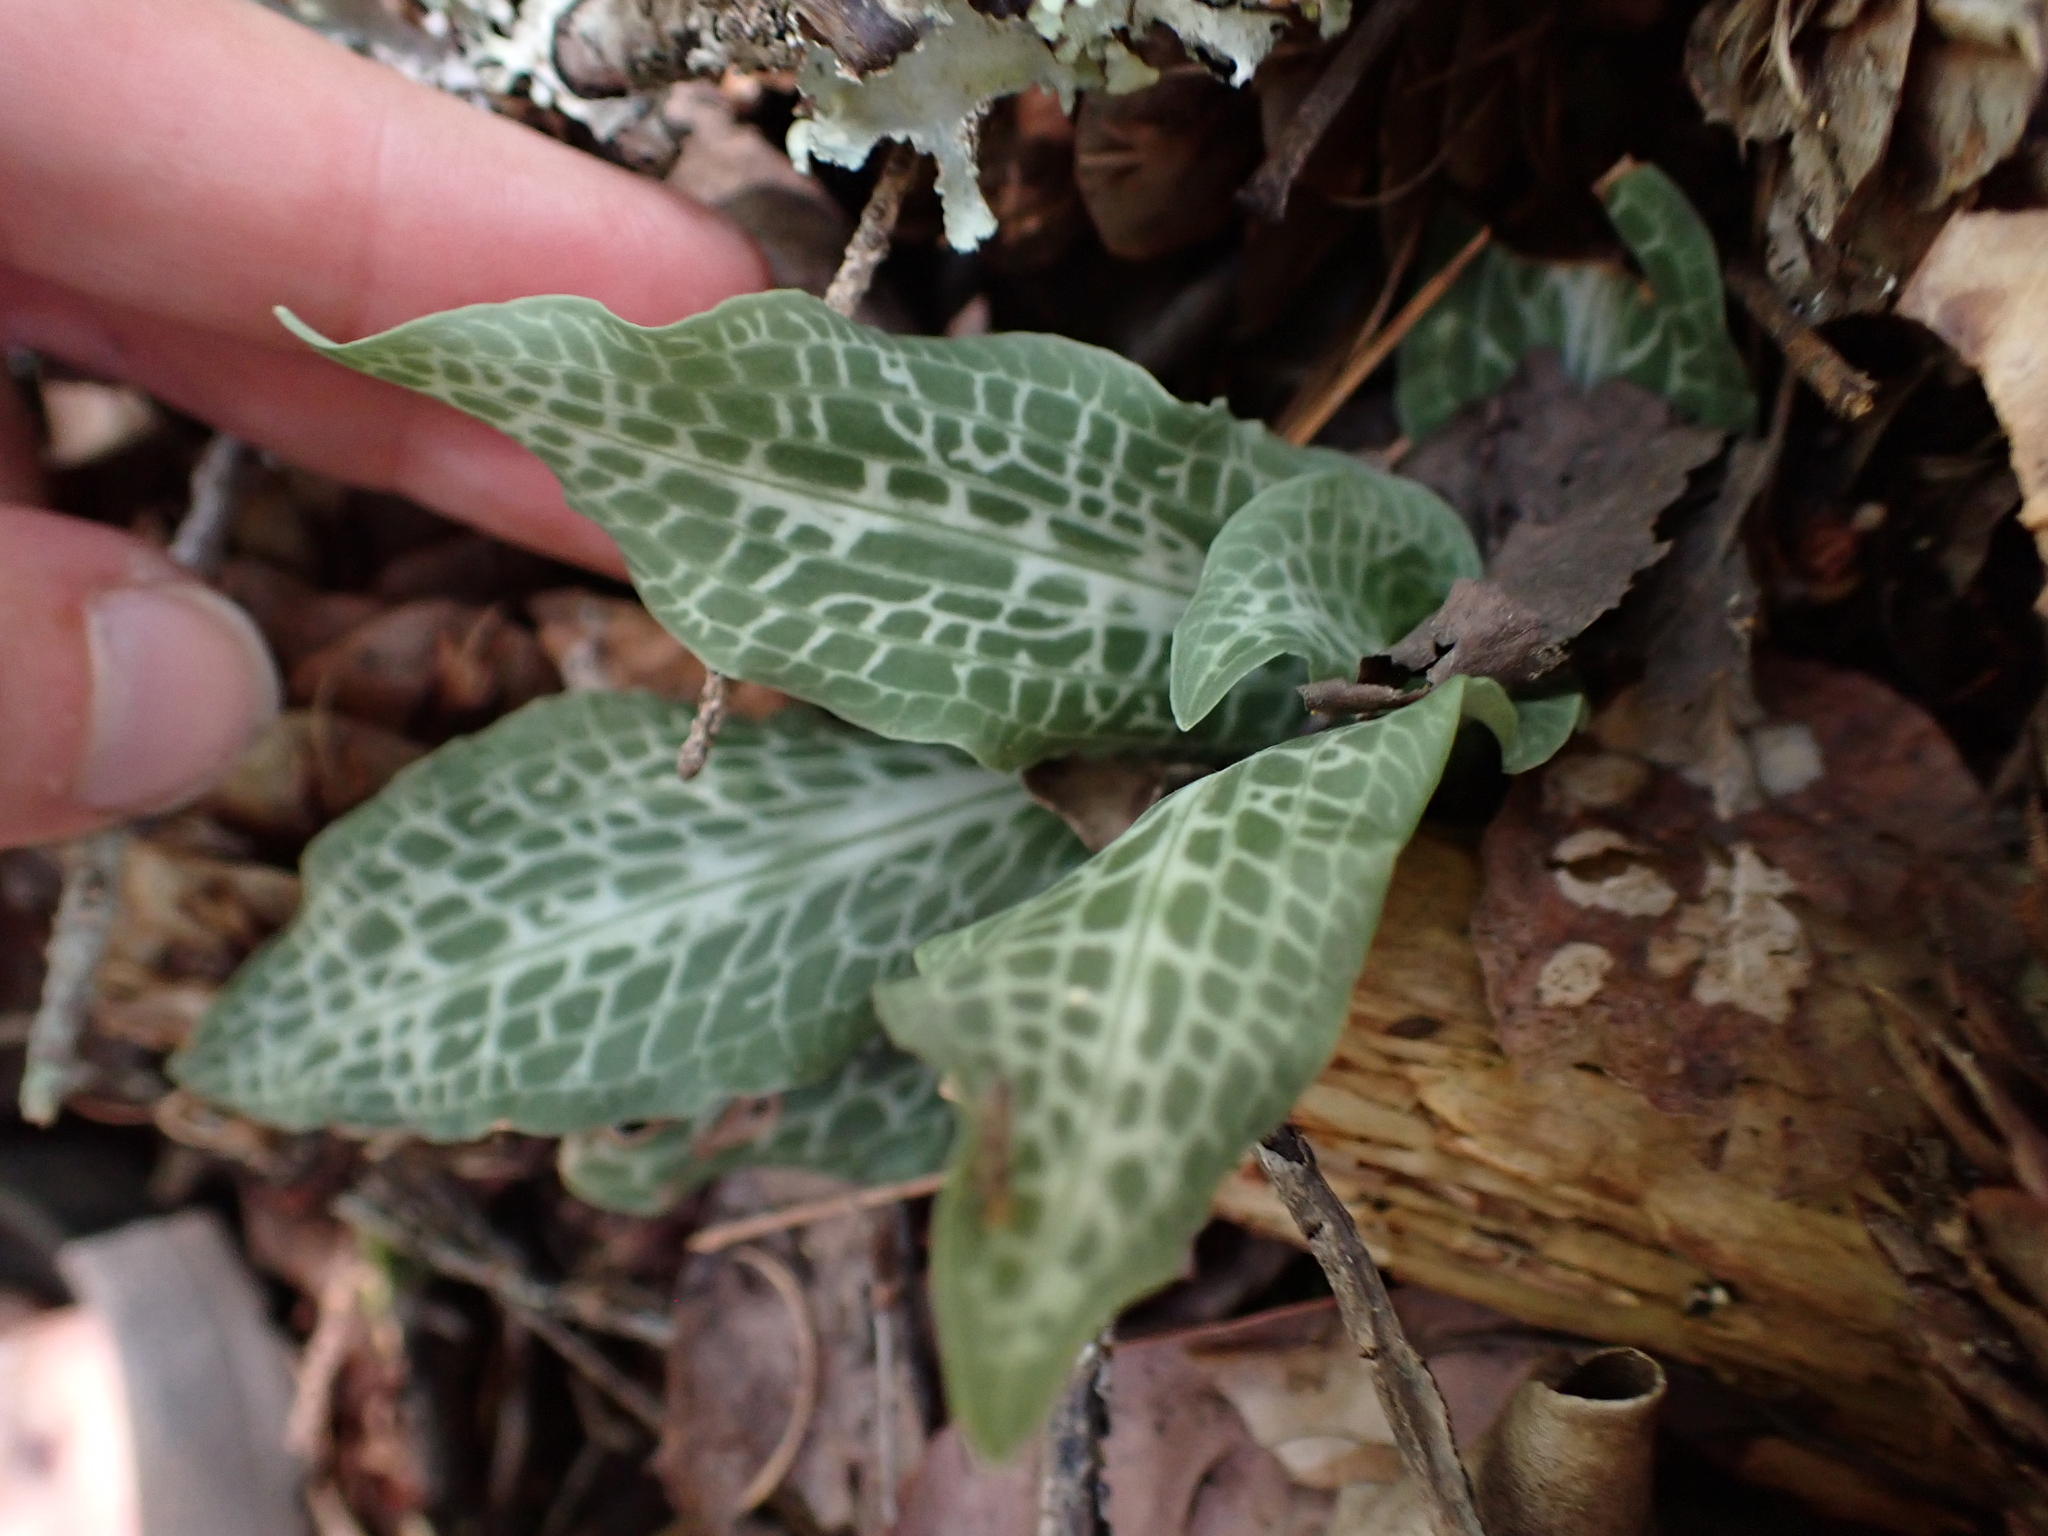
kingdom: Plantae
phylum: Tracheophyta
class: Liliopsida
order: Asparagales
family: Orchidaceae
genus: Goodyera
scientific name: Goodyera oblongifolia
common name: Giant rattlesnake-plantain
